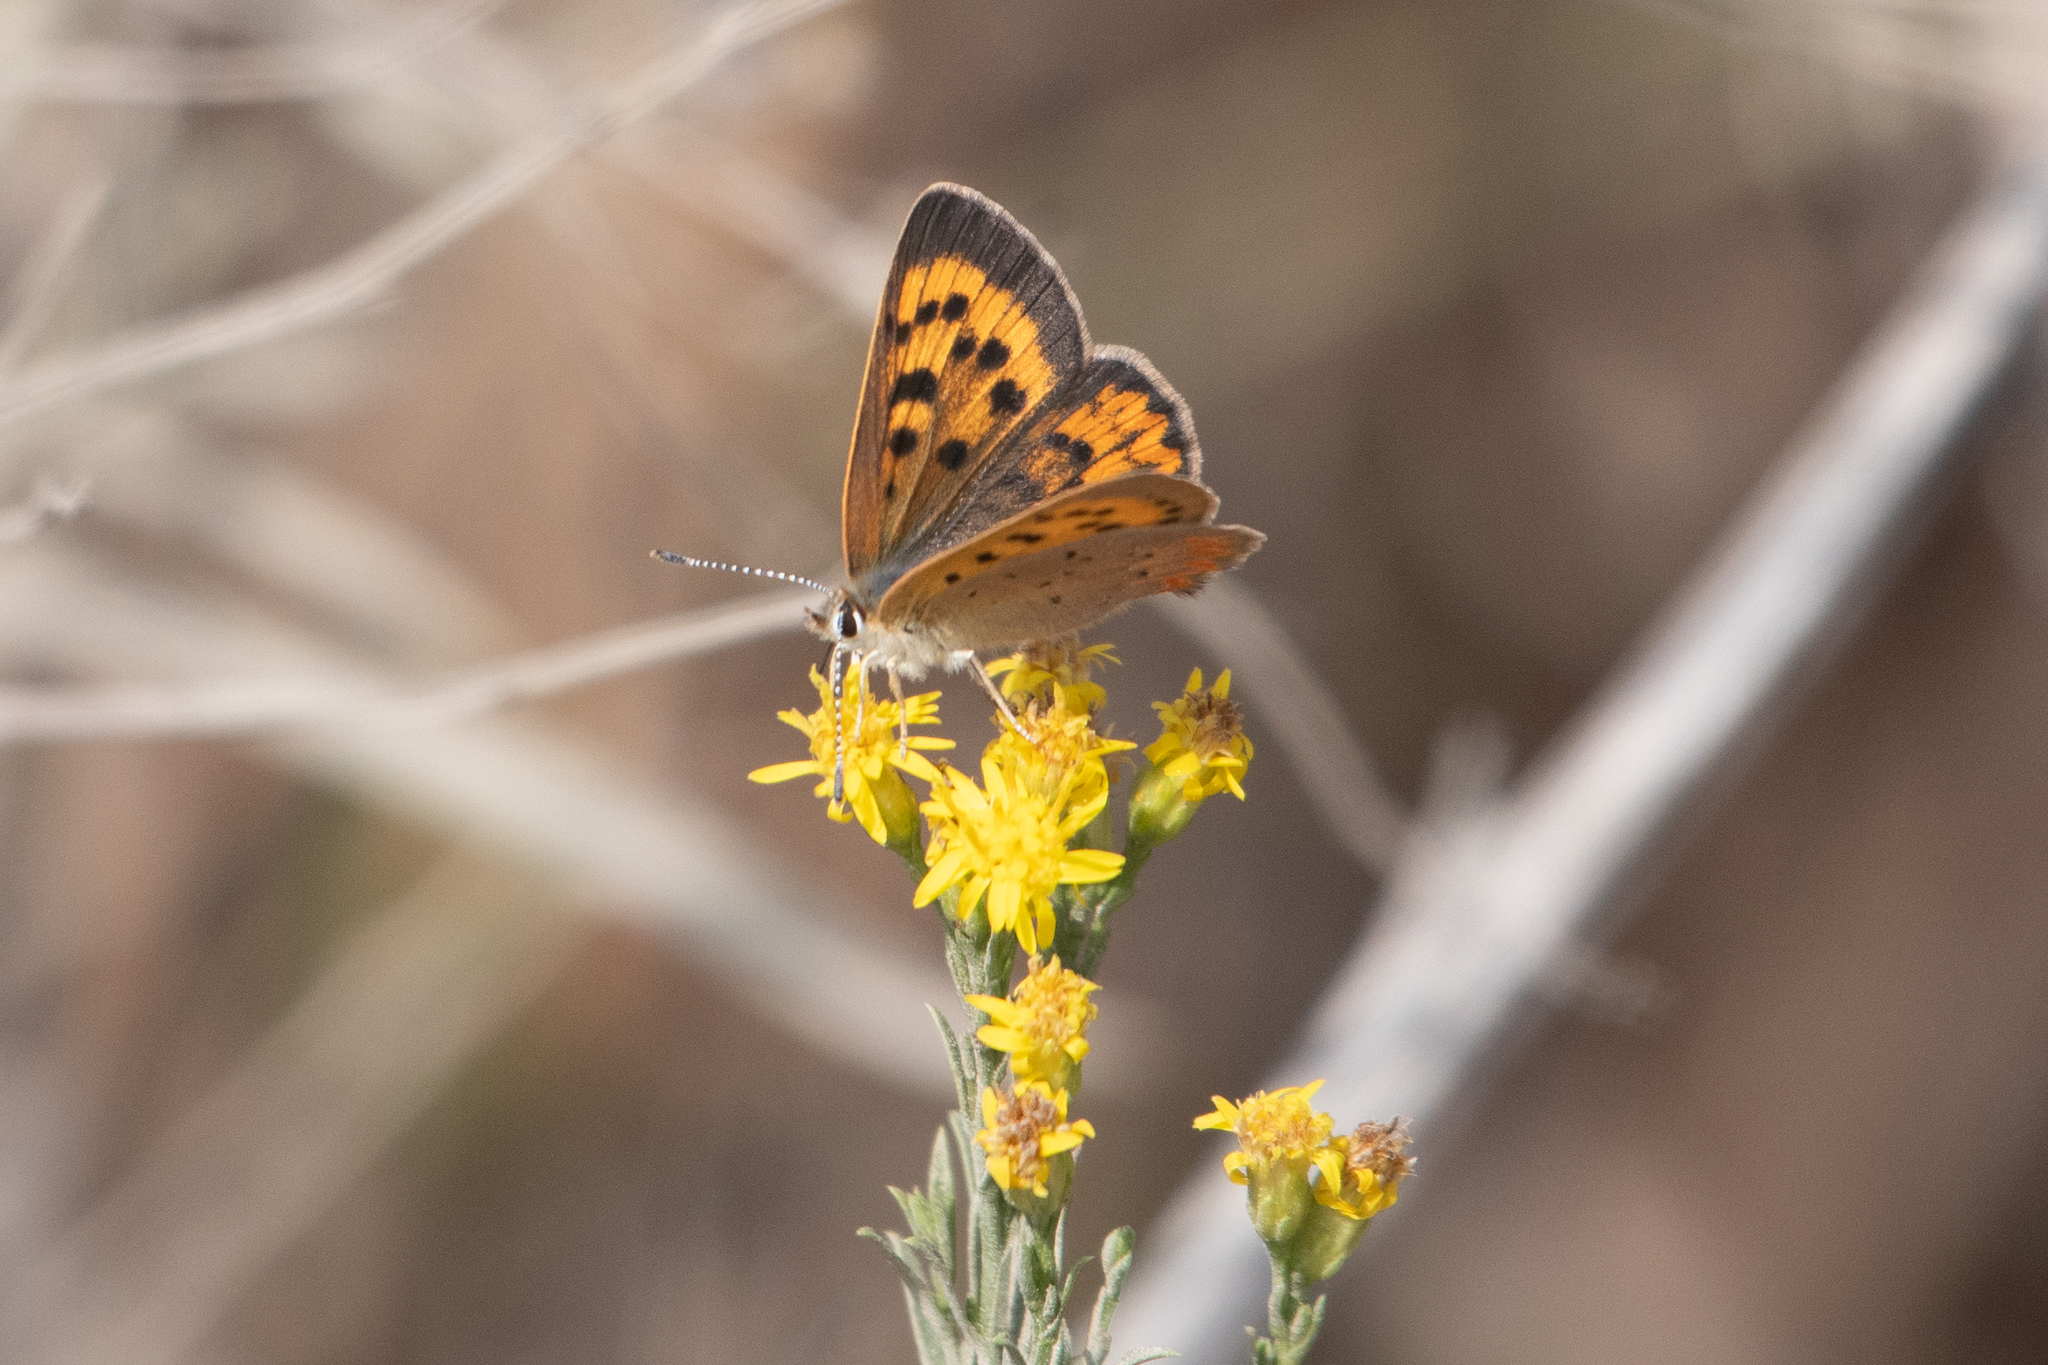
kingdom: Animalia
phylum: Arthropoda
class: Insecta
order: Lepidoptera
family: Lycaenidae
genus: Tharsalea
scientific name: Tharsalea helloides
